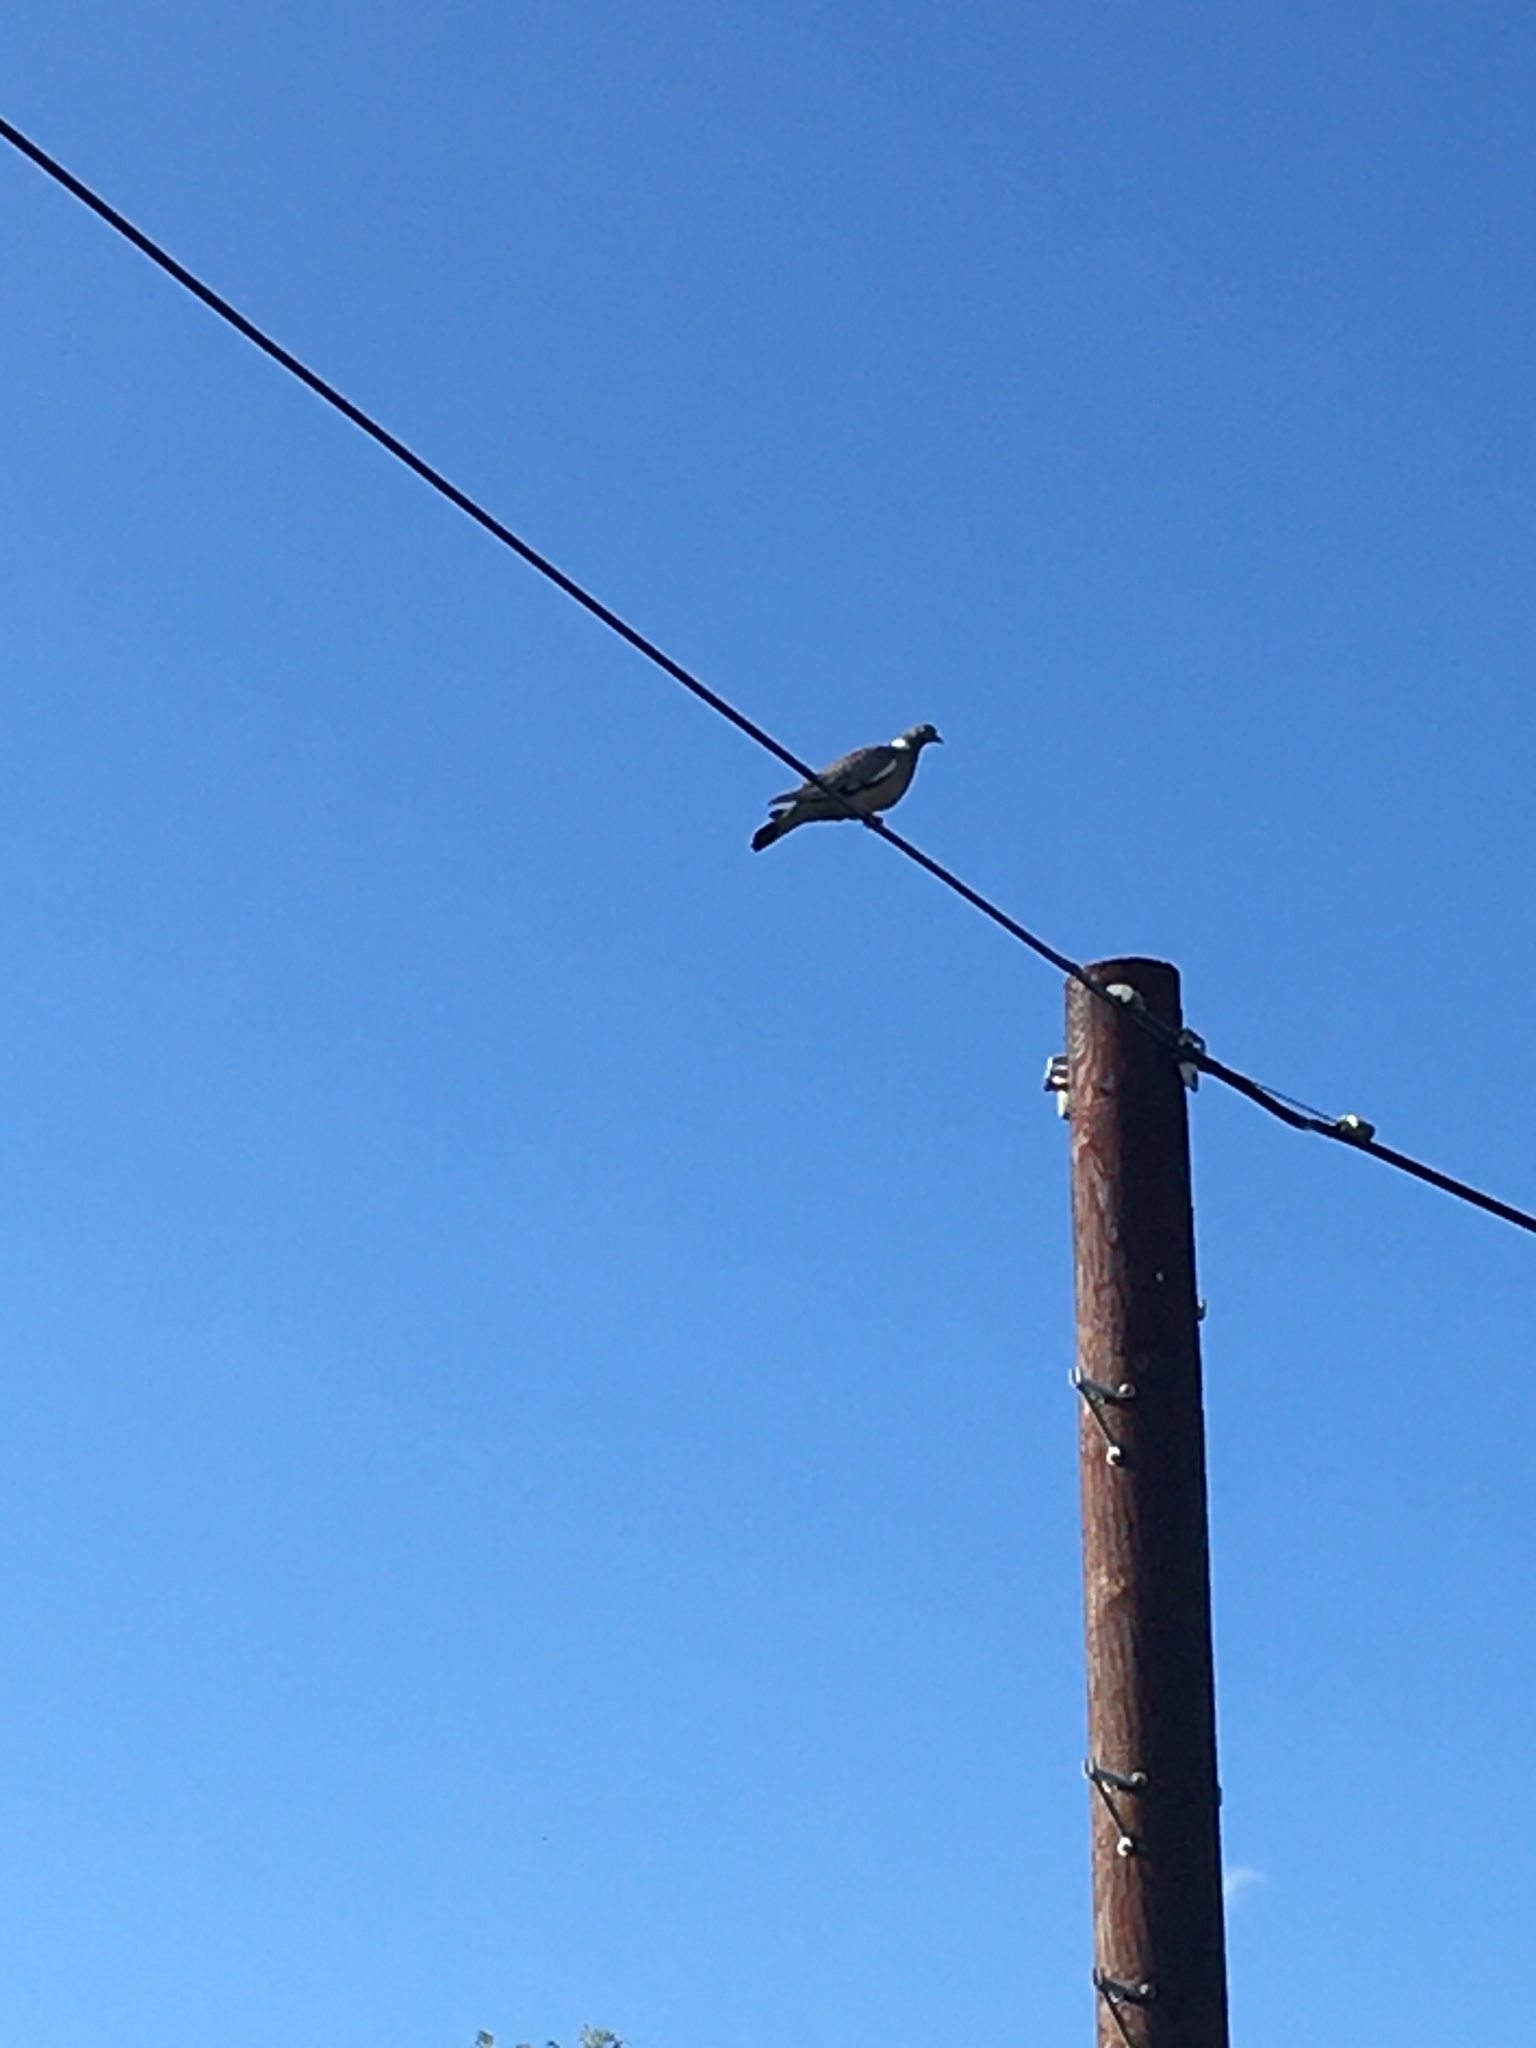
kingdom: Animalia
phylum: Chordata
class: Aves
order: Columbiformes
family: Columbidae
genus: Columba
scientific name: Columba palumbus
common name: Common wood pigeon
